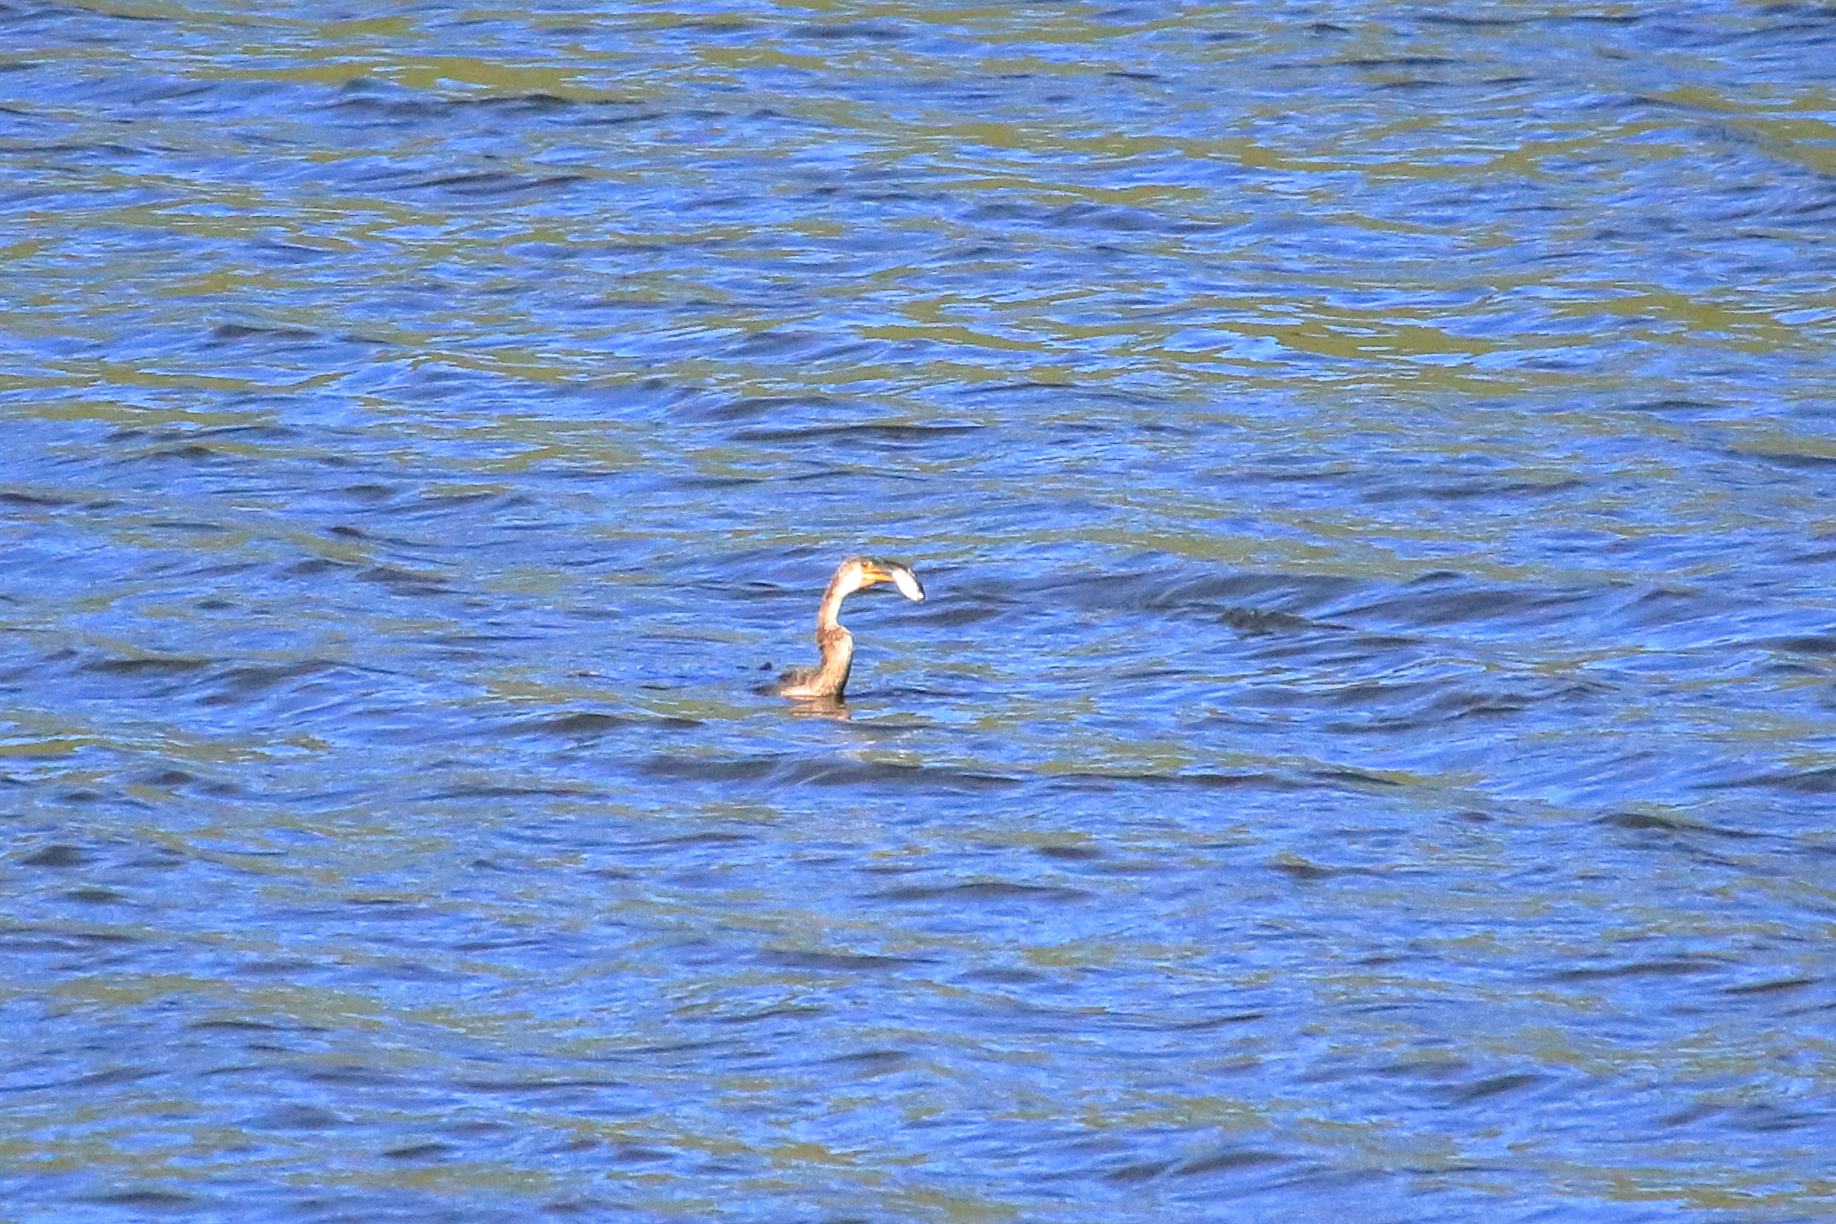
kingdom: Animalia
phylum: Chordata
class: Aves
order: Suliformes
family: Anhingidae
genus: Anhinga
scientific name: Anhinga anhinga
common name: Anhinga
